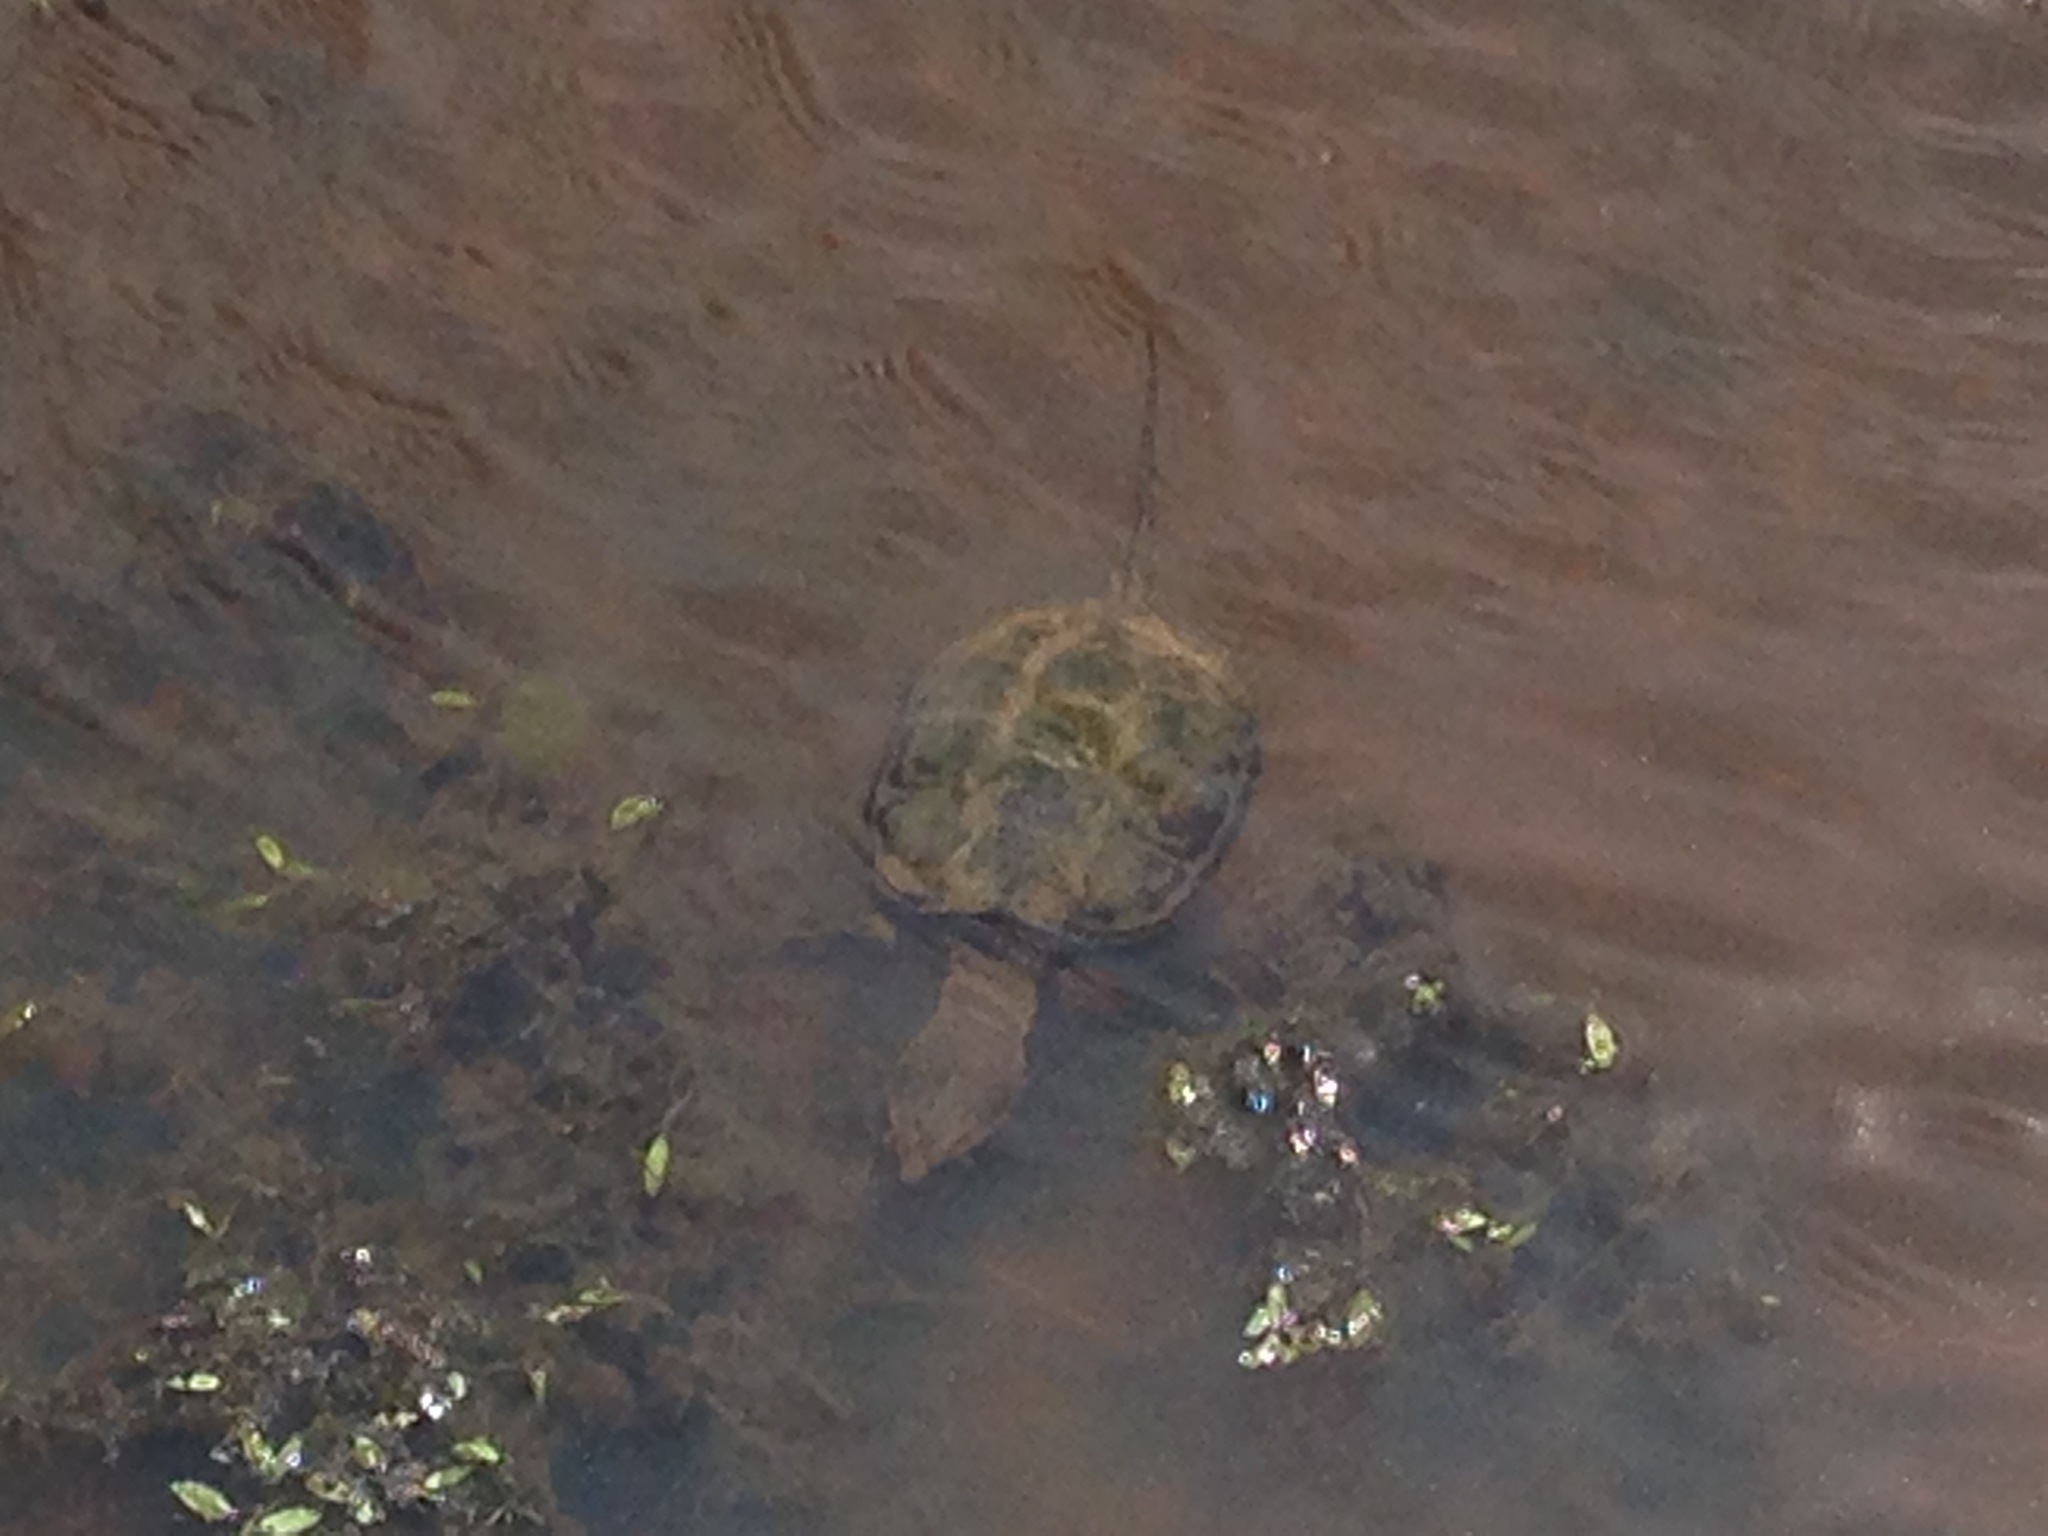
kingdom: Animalia
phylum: Chordata
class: Testudines
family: Chelydridae
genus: Chelydra
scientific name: Chelydra serpentina
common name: Common snapping turtle
